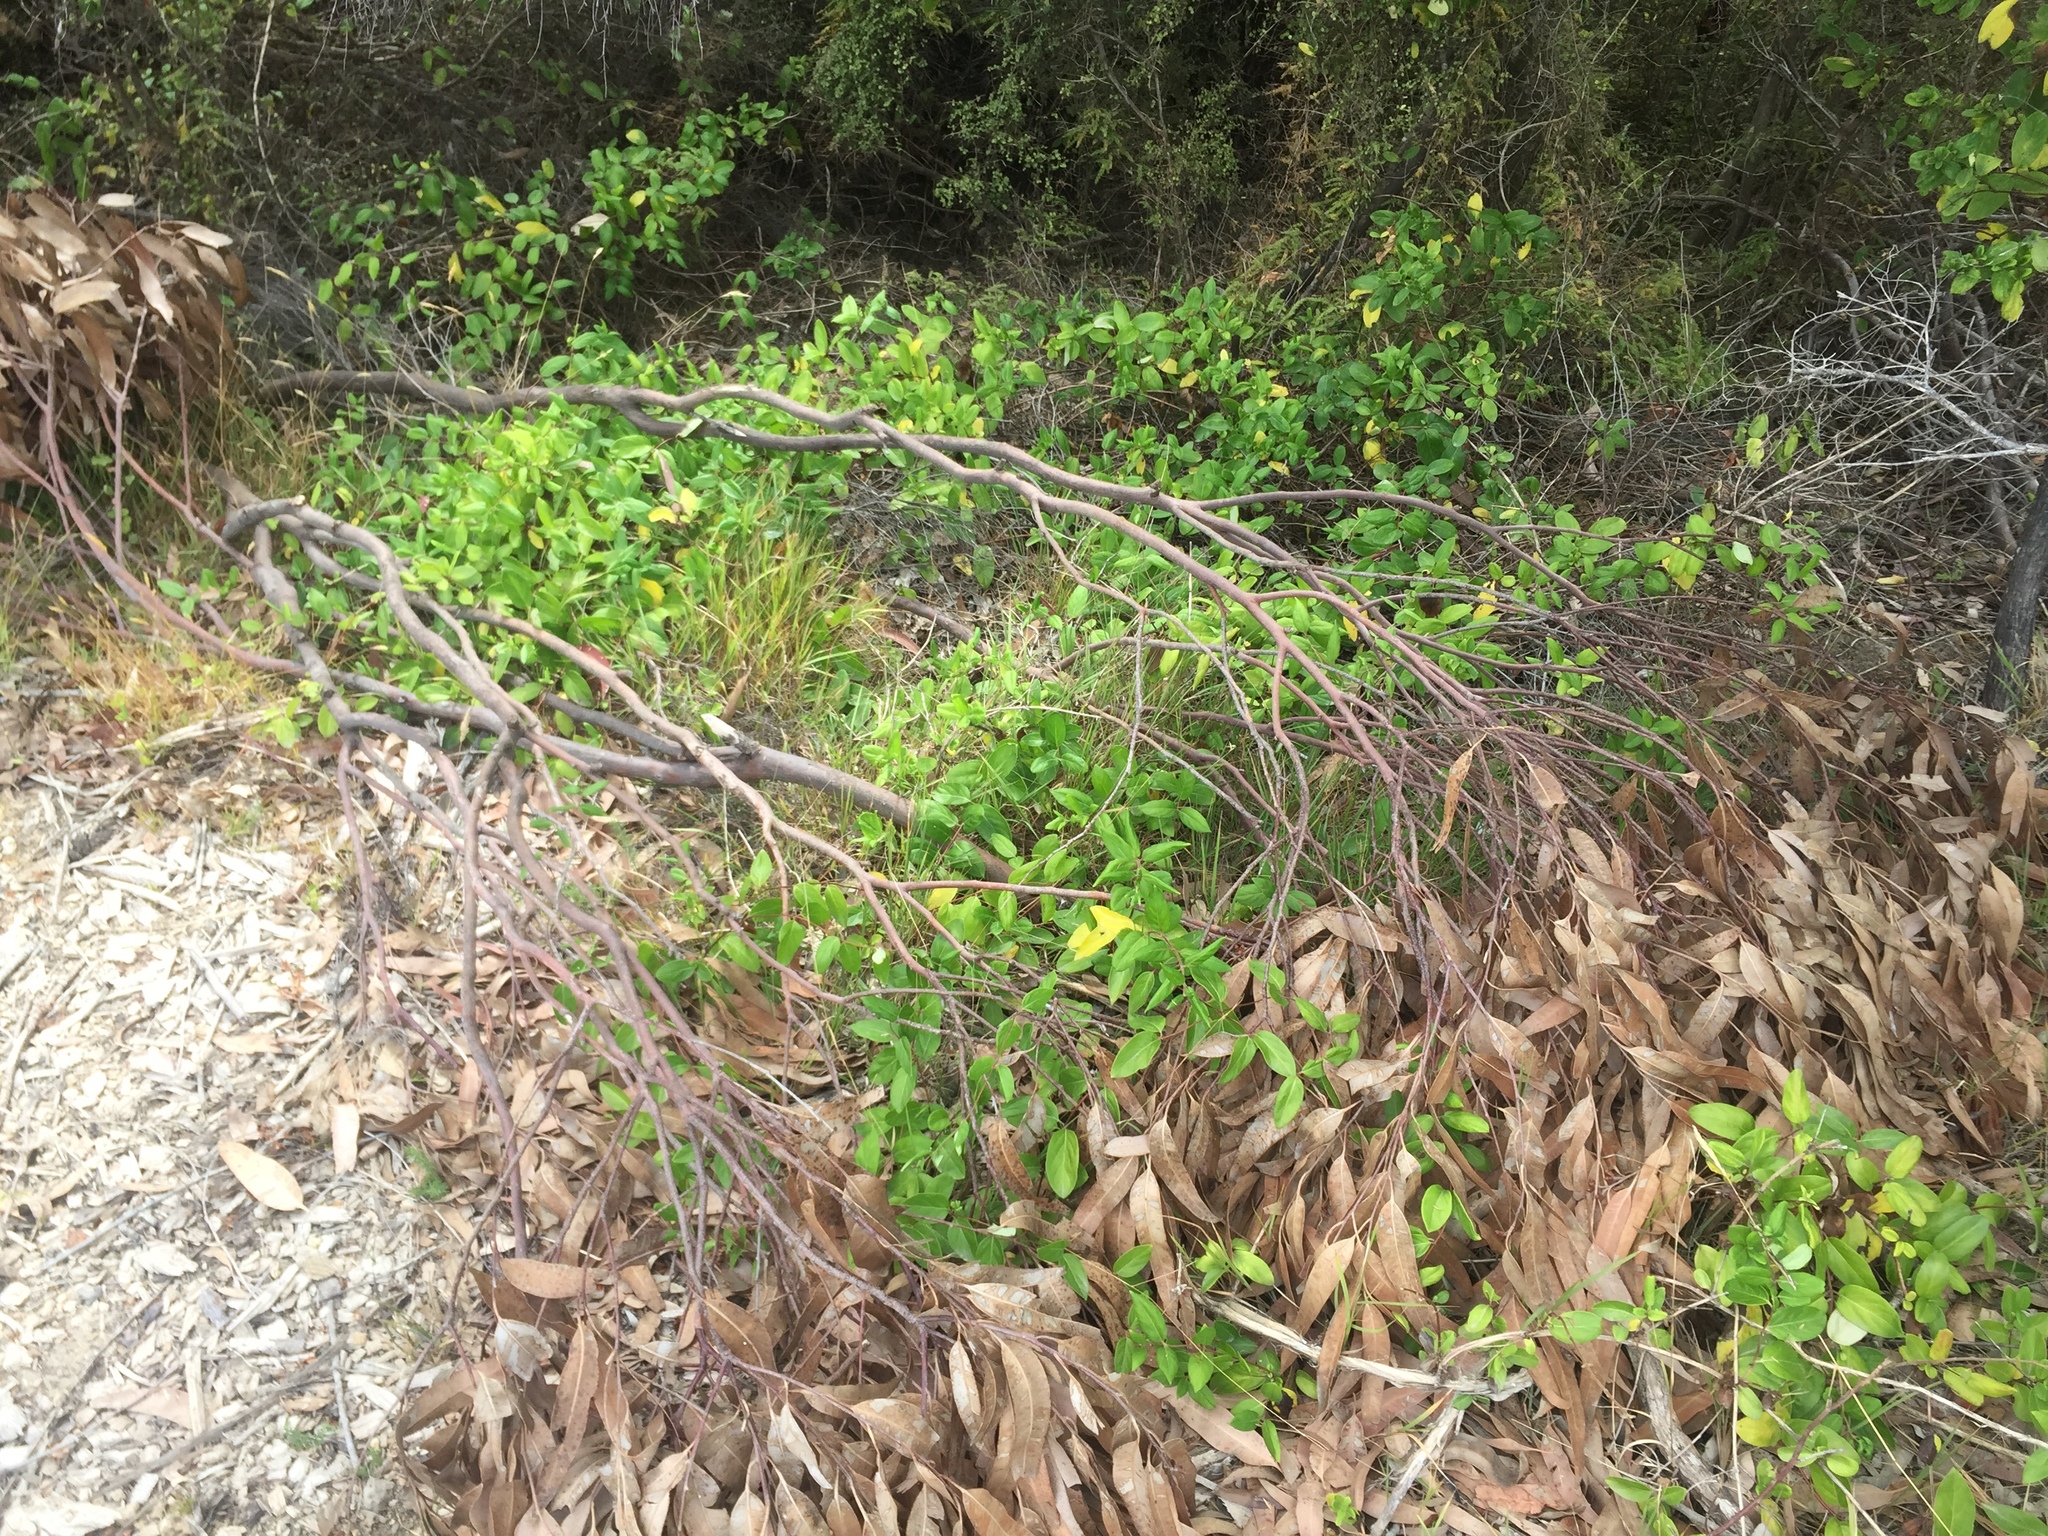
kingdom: Plantae
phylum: Tracheophyta
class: Magnoliopsida
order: Dipsacales
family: Caprifoliaceae
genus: Lonicera
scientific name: Lonicera japonica
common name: Japanese honeysuckle
